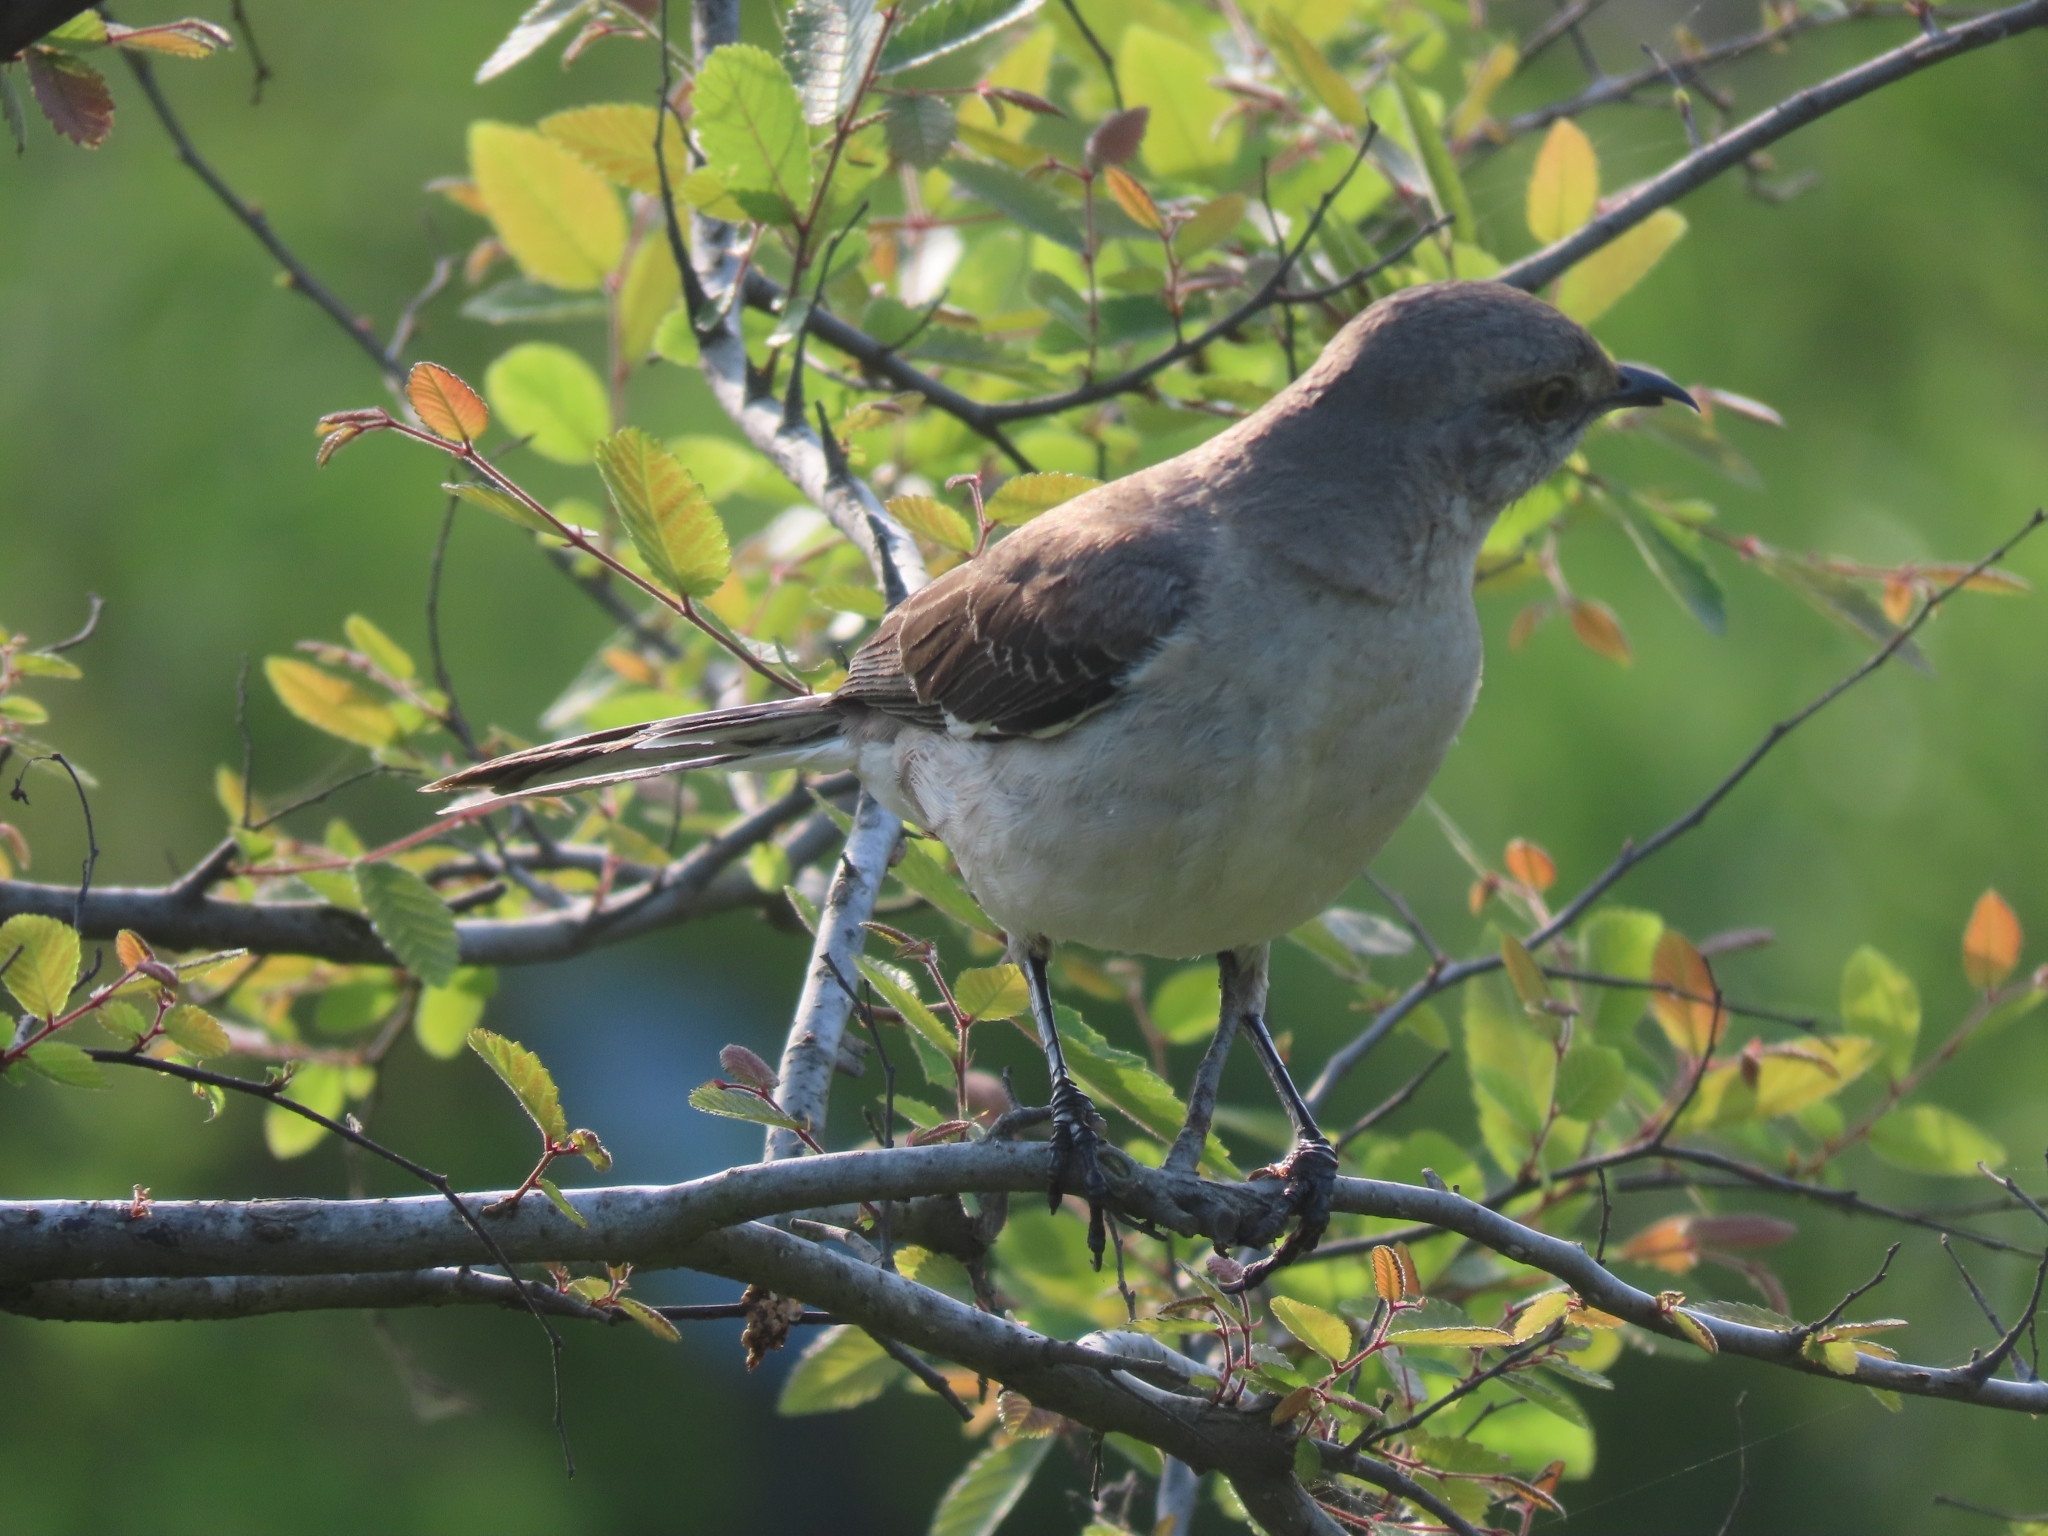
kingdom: Animalia
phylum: Chordata
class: Aves
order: Passeriformes
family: Mimidae
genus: Mimus
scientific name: Mimus polyglottos
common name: Northern mockingbird
